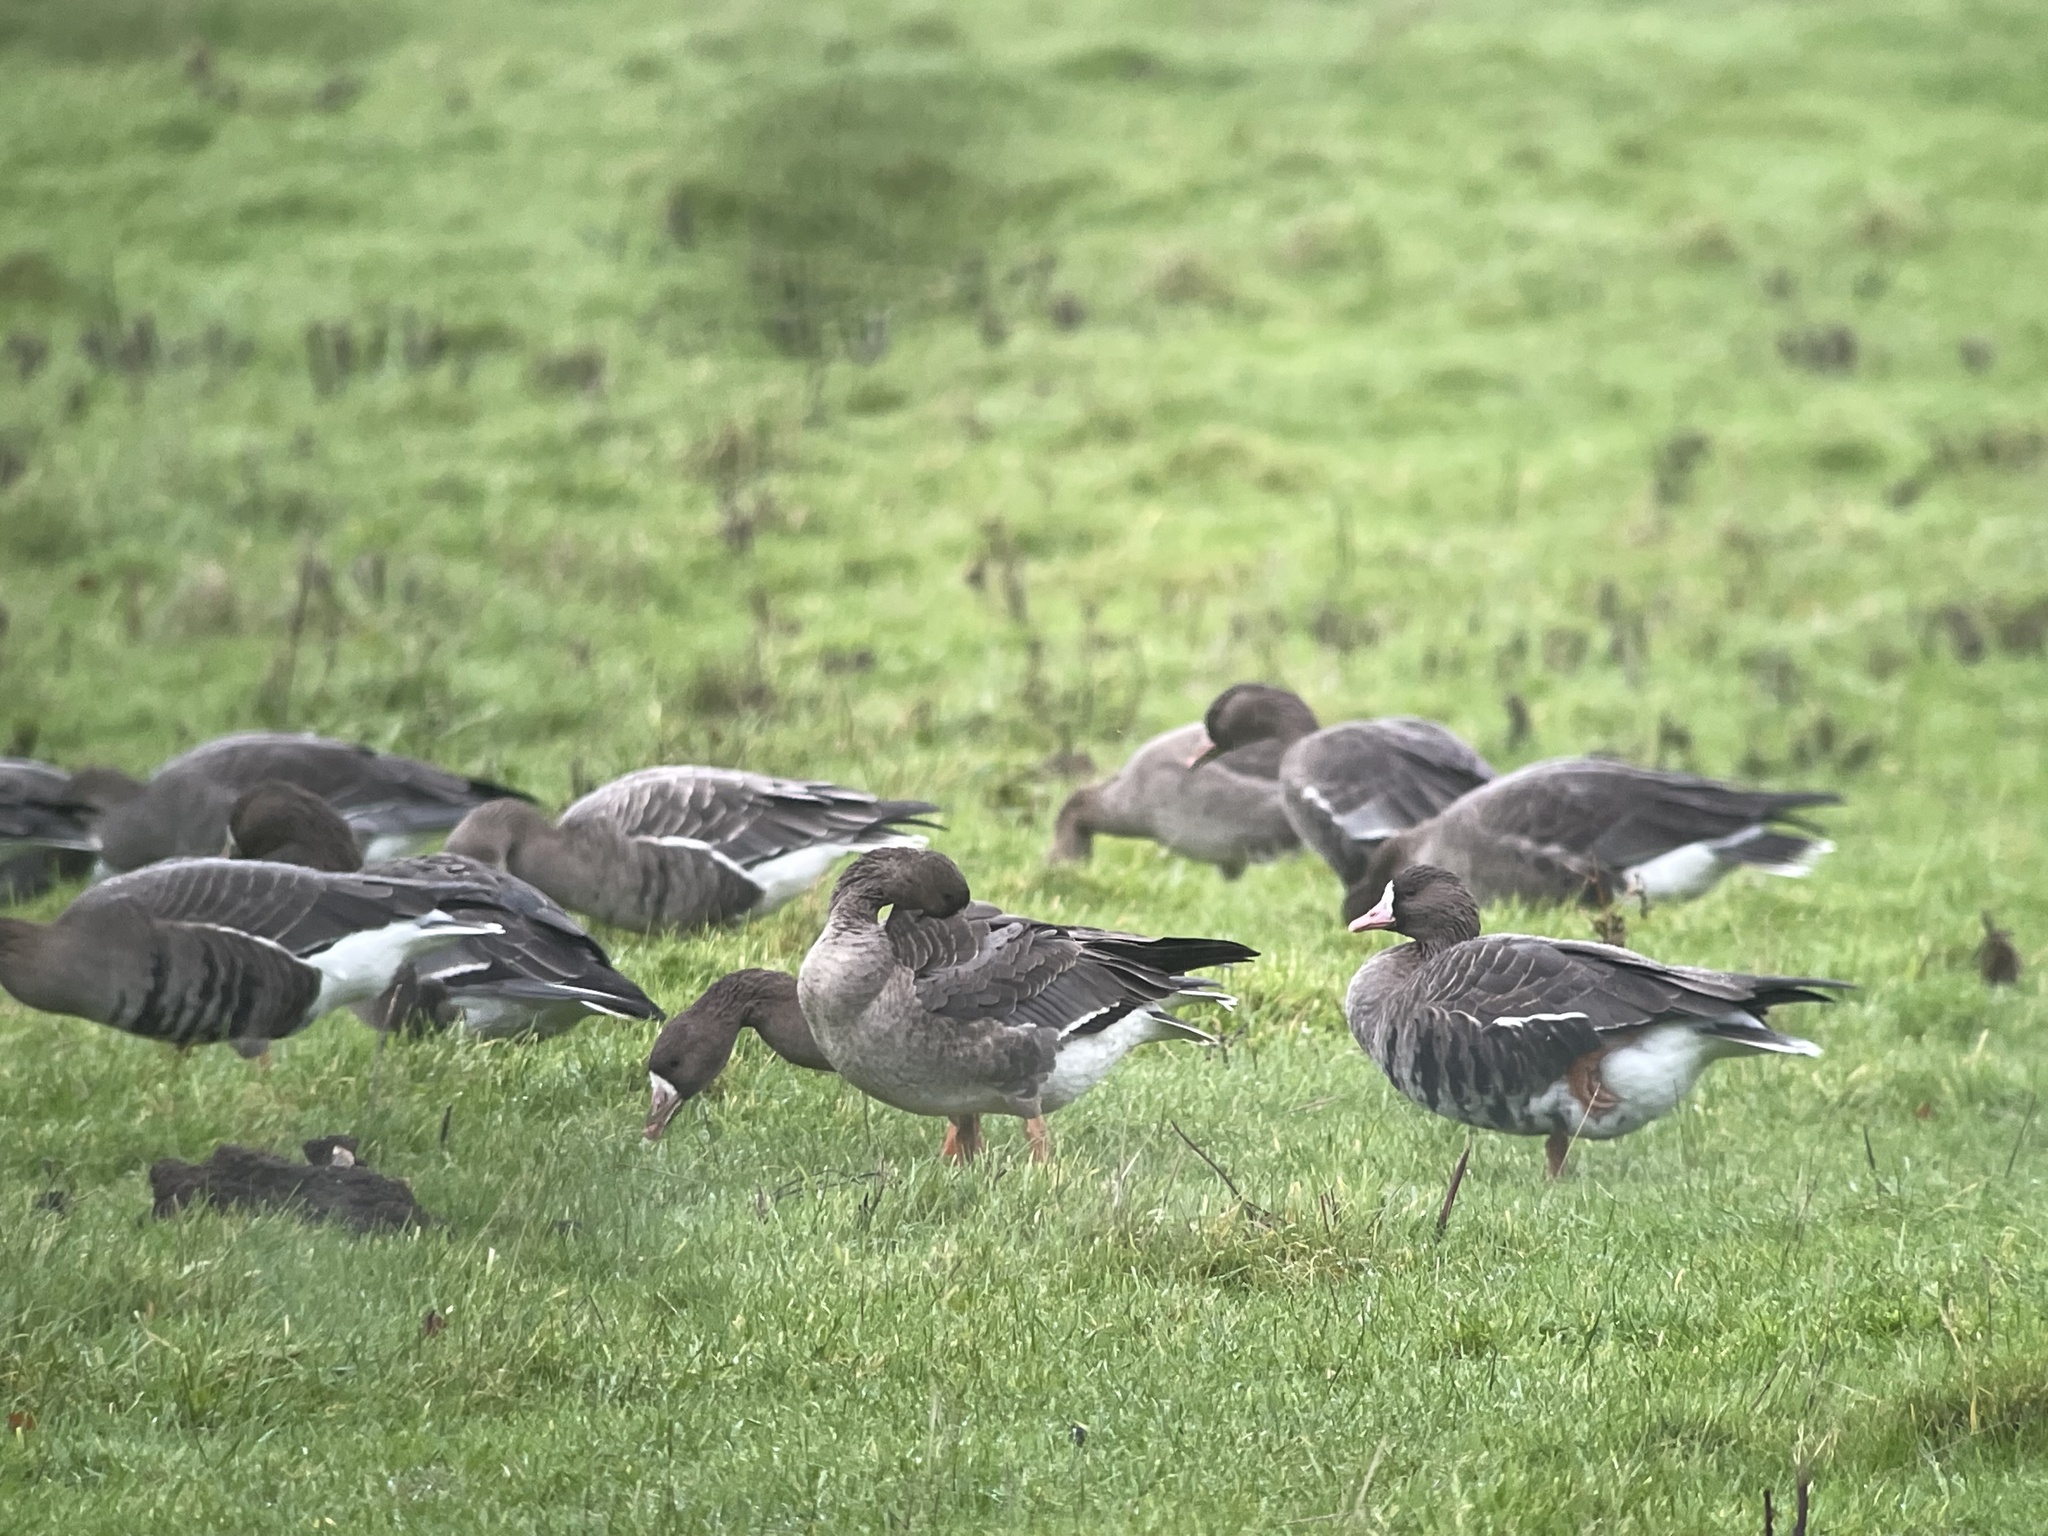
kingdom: Animalia
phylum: Chordata
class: Aves
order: Anseriformes
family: Anatidae
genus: Anser
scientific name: Anser albifrons
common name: Greater white-fronted goose
